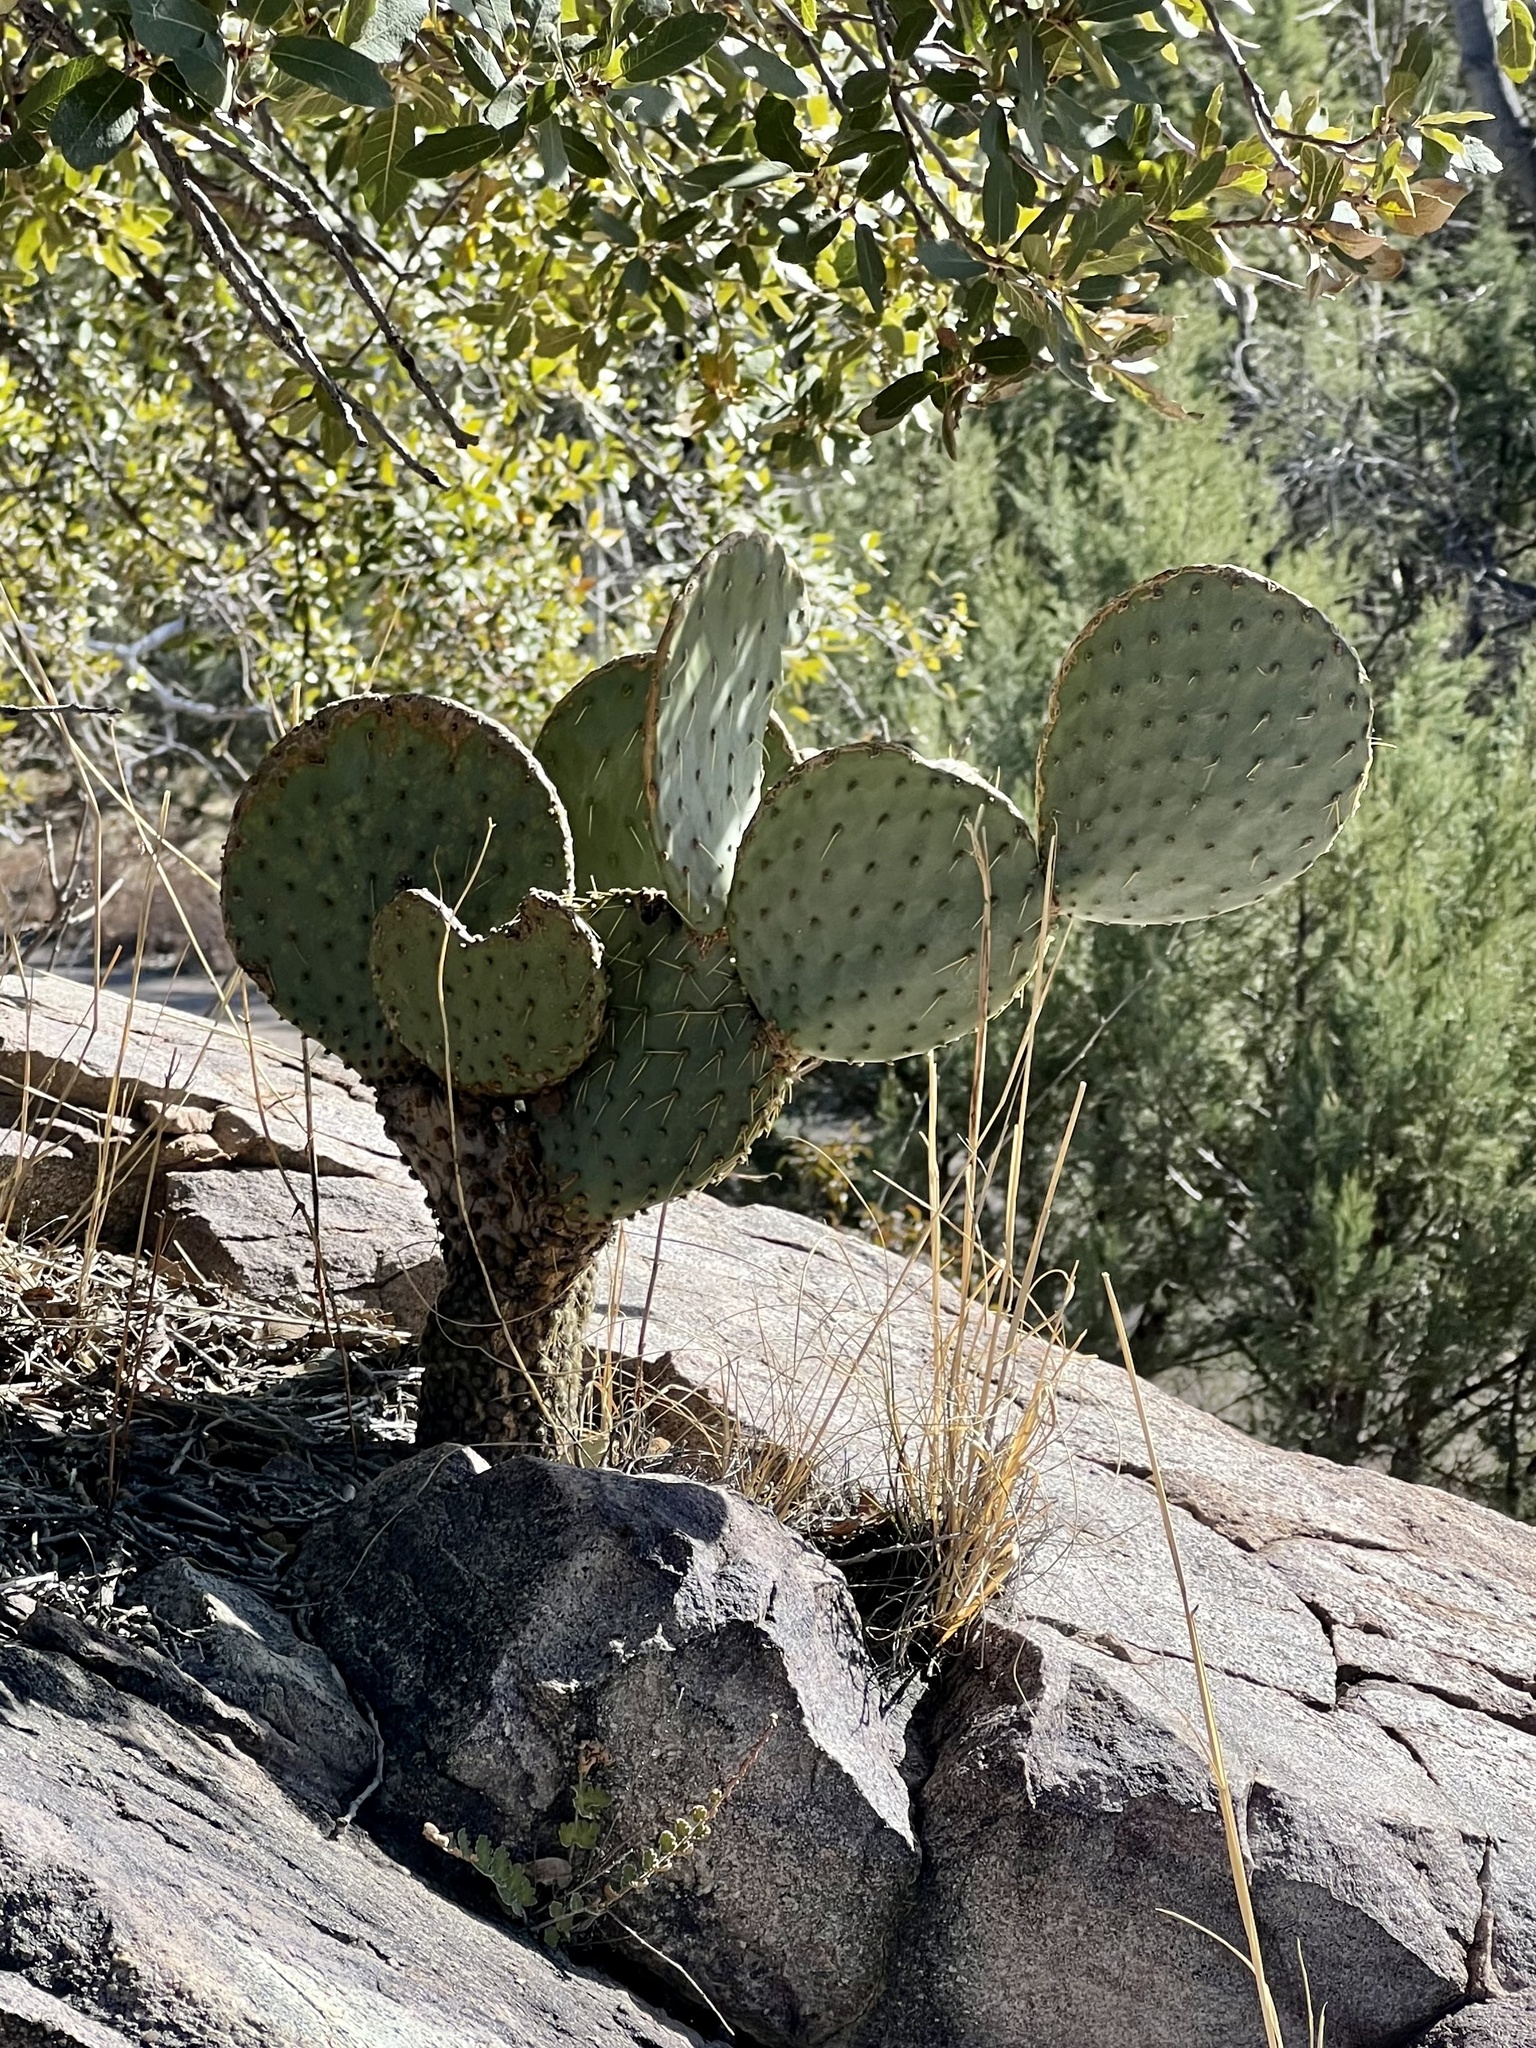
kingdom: Plantae
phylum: Tracheophyta
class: Magnoliopsida
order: Caryophyllales
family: Cactaceae
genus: Opuntia
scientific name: Opuntia chlorotica
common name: Dollar-joint prickly-pear
